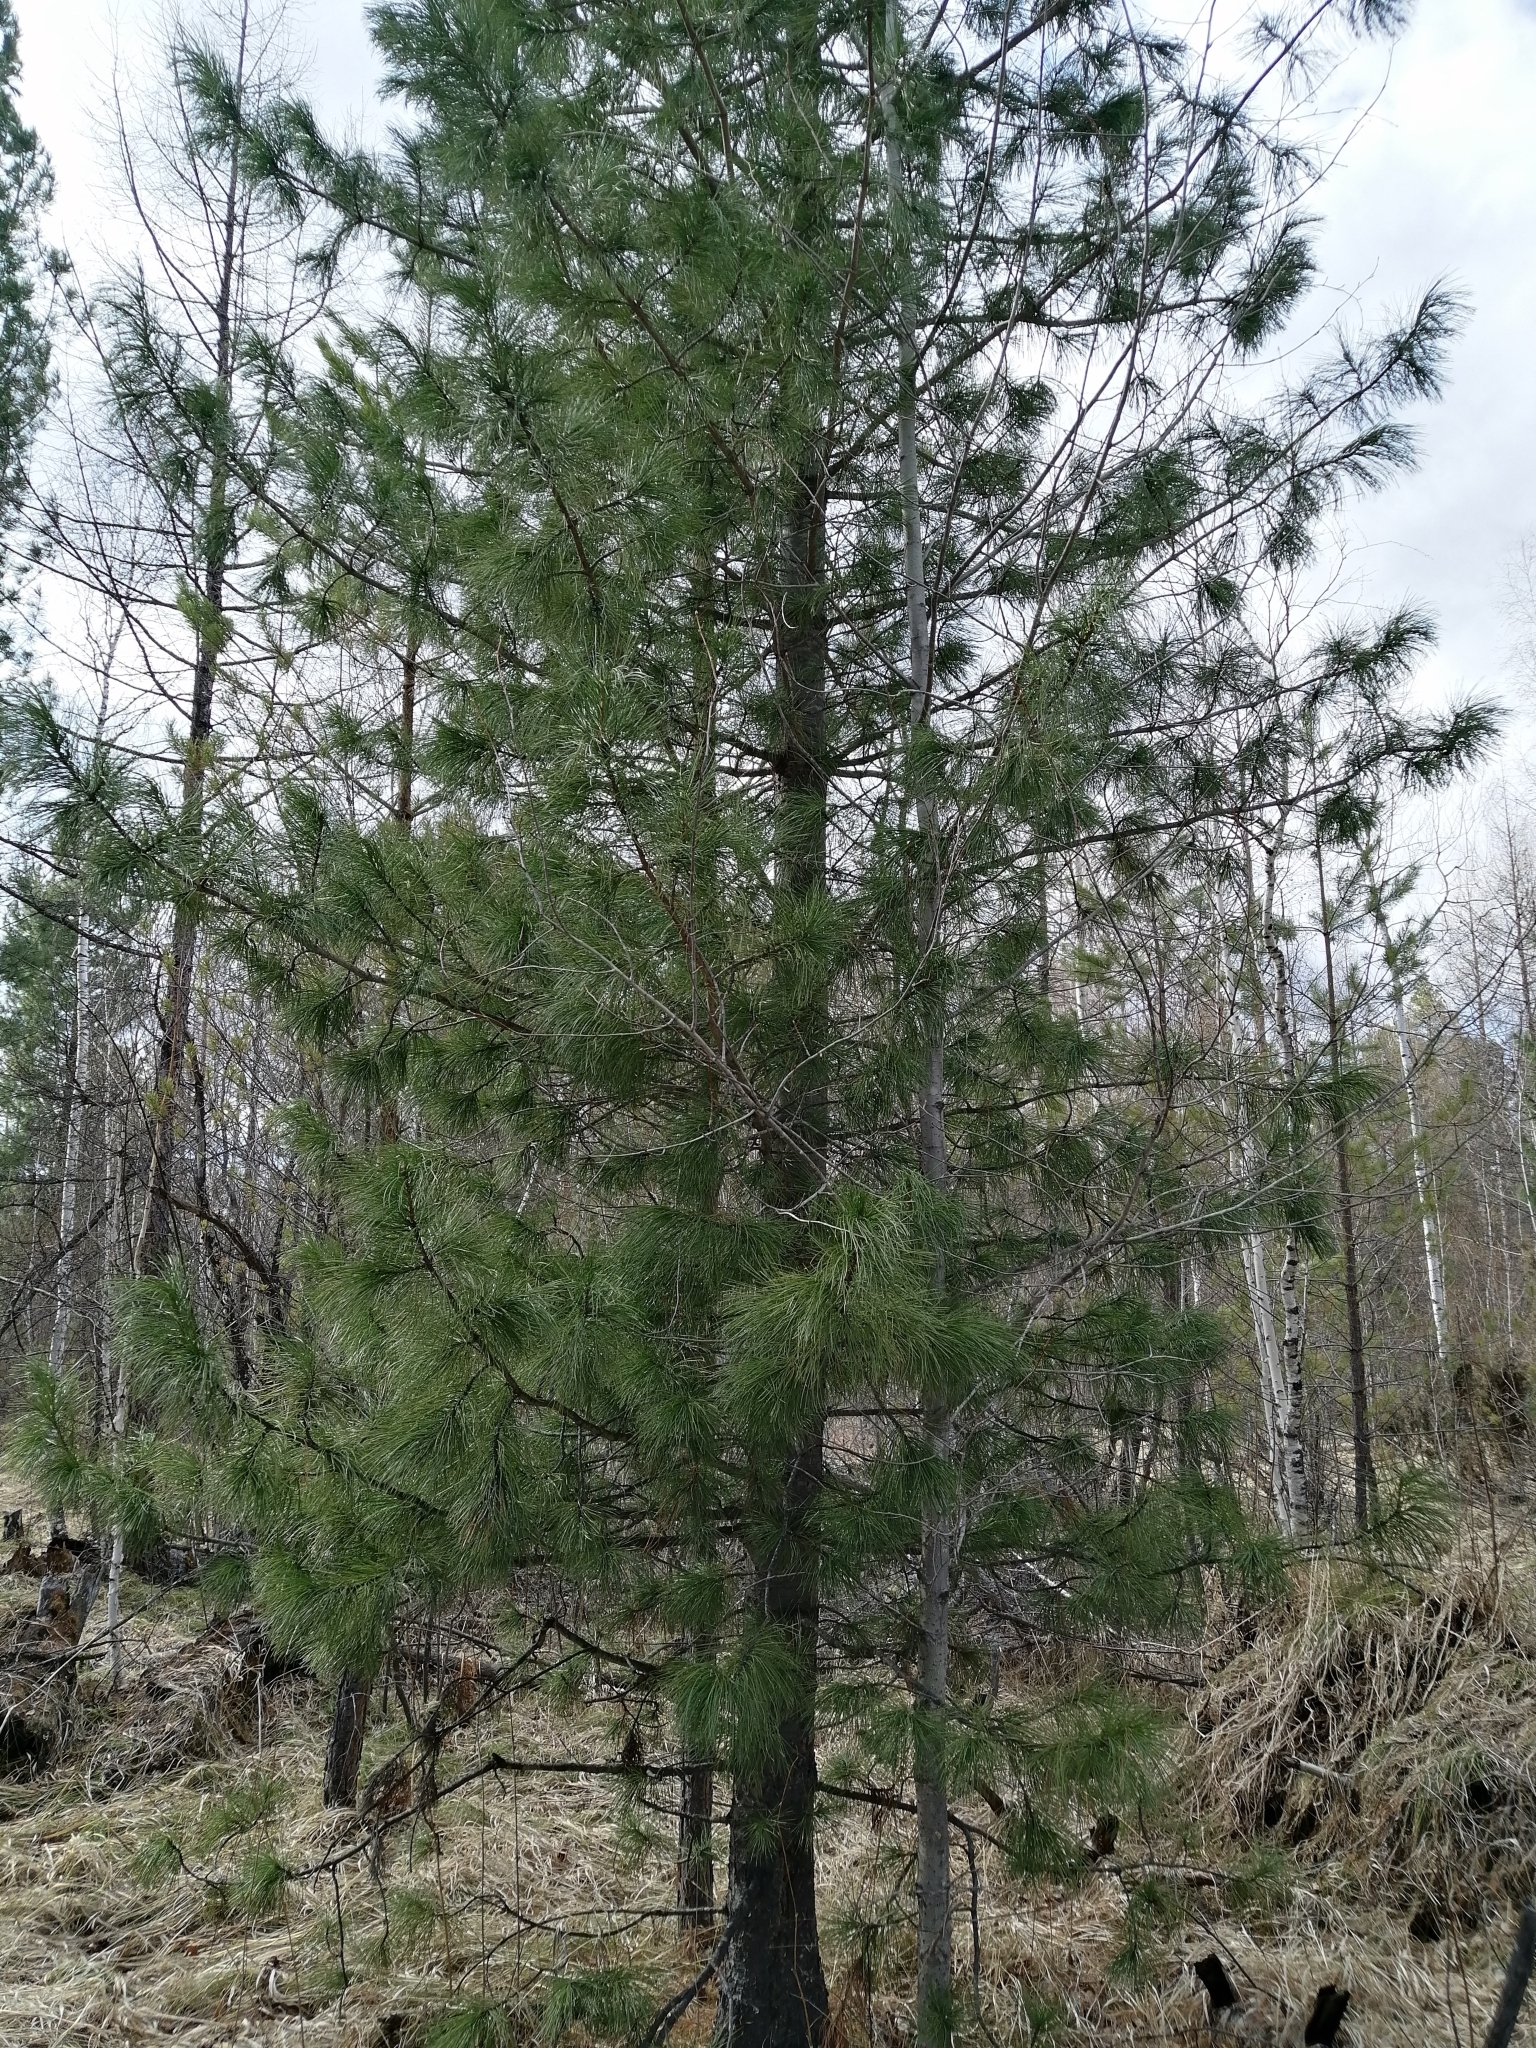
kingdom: Plantae
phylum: Tracheophyta
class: Pinopsida
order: Pinales
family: Pinaceae
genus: Pinus
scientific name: Pinus sibirica
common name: Siberian pine
